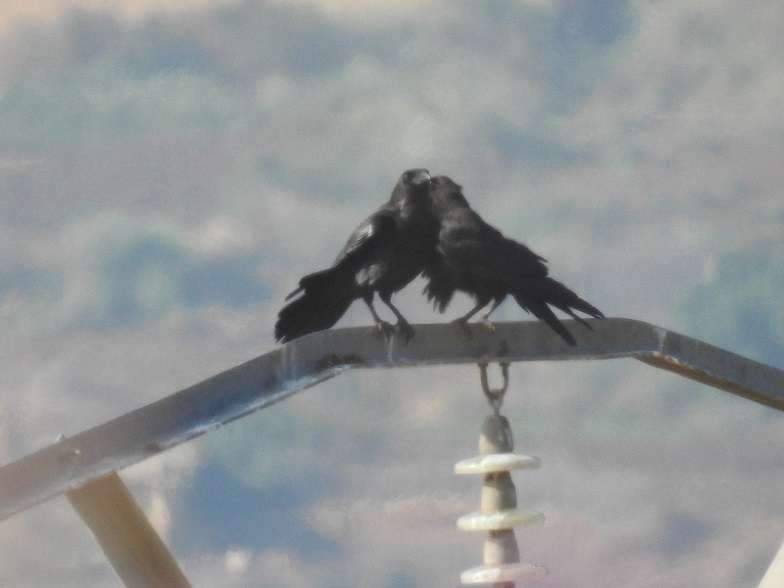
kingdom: Animalia
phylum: Chordata
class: Aves
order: Passeriformes
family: Corvidae
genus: Corvus
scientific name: Corvus corax
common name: Common raven
